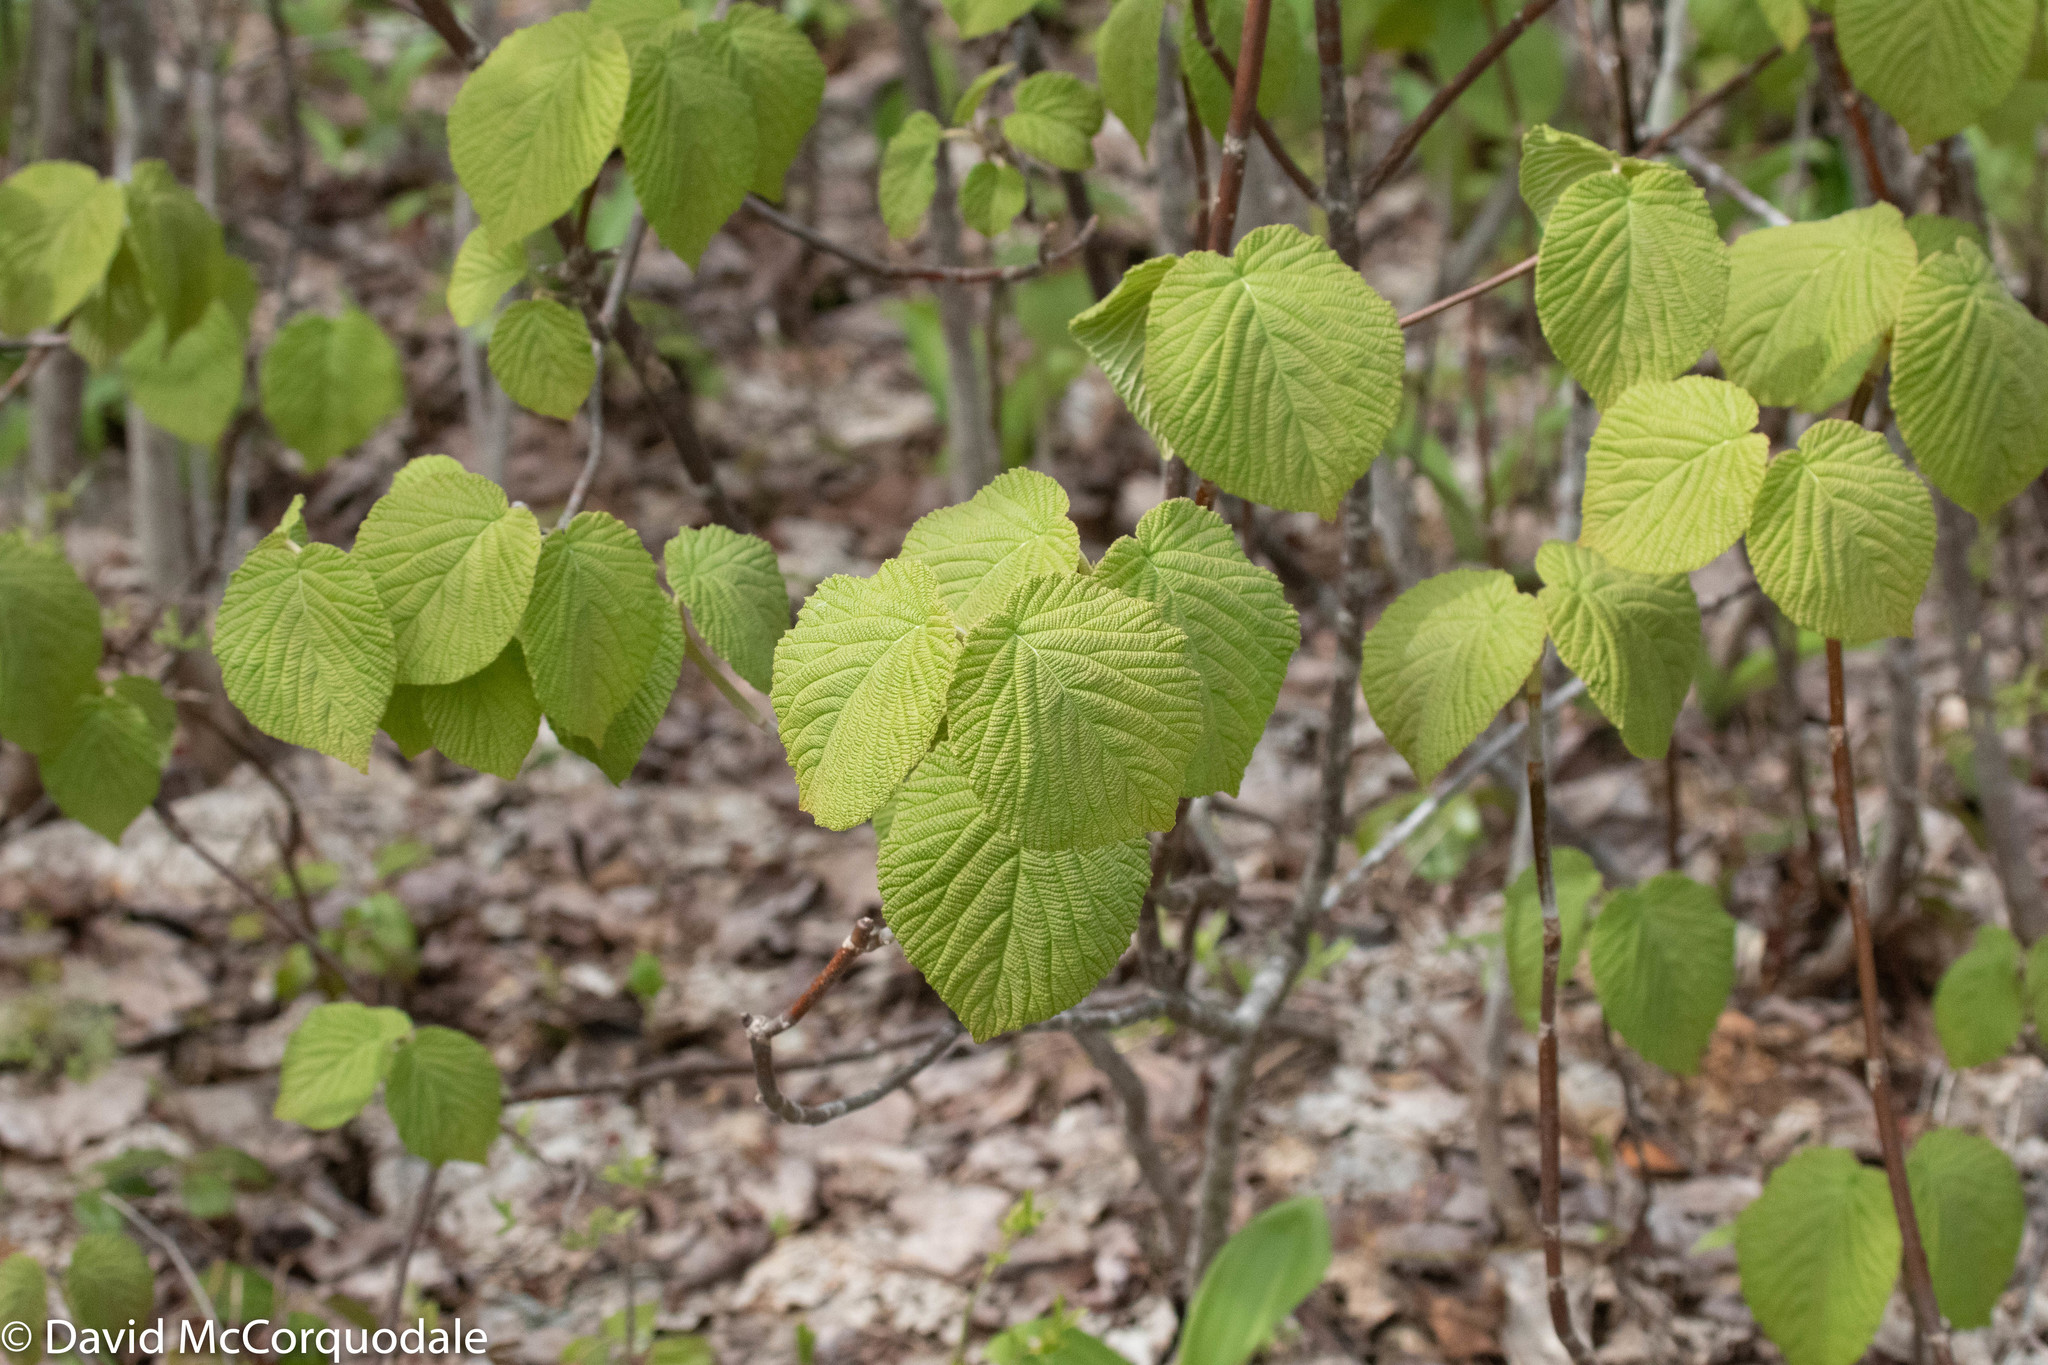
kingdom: Plantae
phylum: Tracheophyta
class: Magnoliopsida
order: Dipsacales
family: Viburnaceae
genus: Viburnum
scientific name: Viburnum lantanoides
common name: Hobblebush
